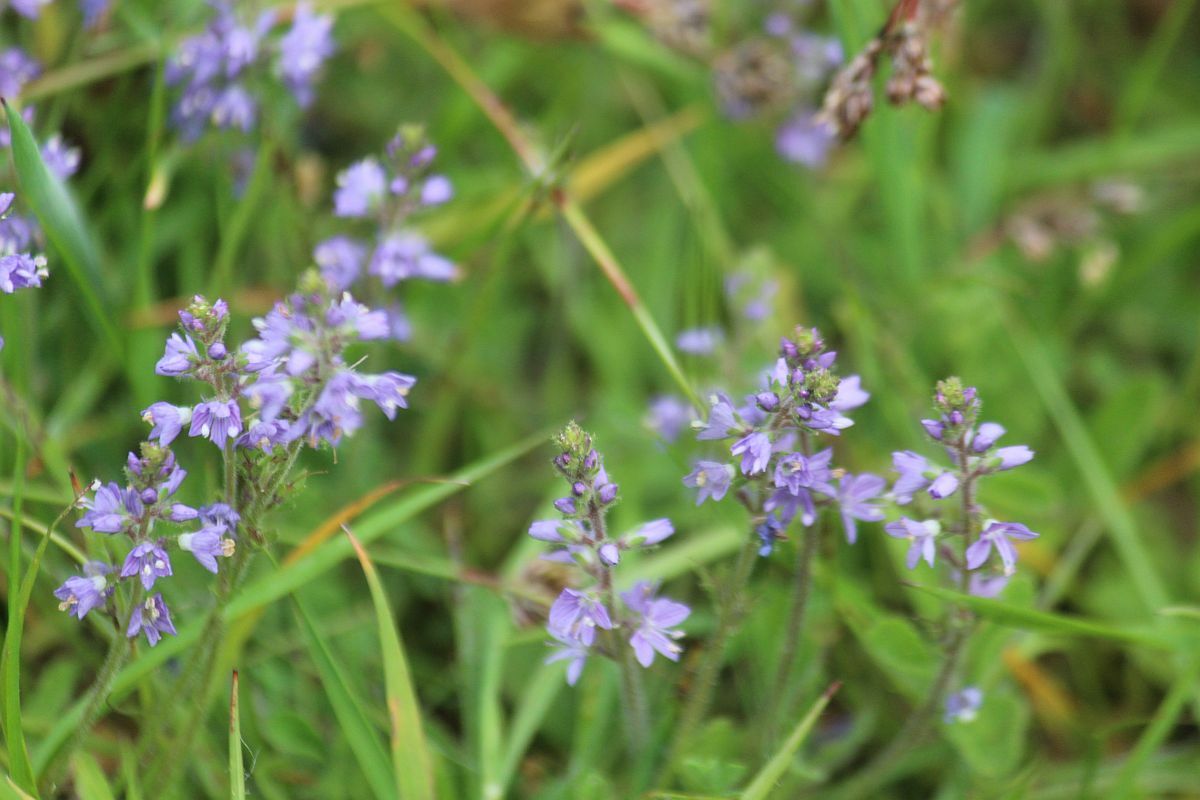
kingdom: Plantae
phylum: Tracheophyta
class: Magnoliopsida
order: Lamiales
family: Plantaginaceae
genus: Veronica
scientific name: Veronica officinalis
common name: Common speedwell
